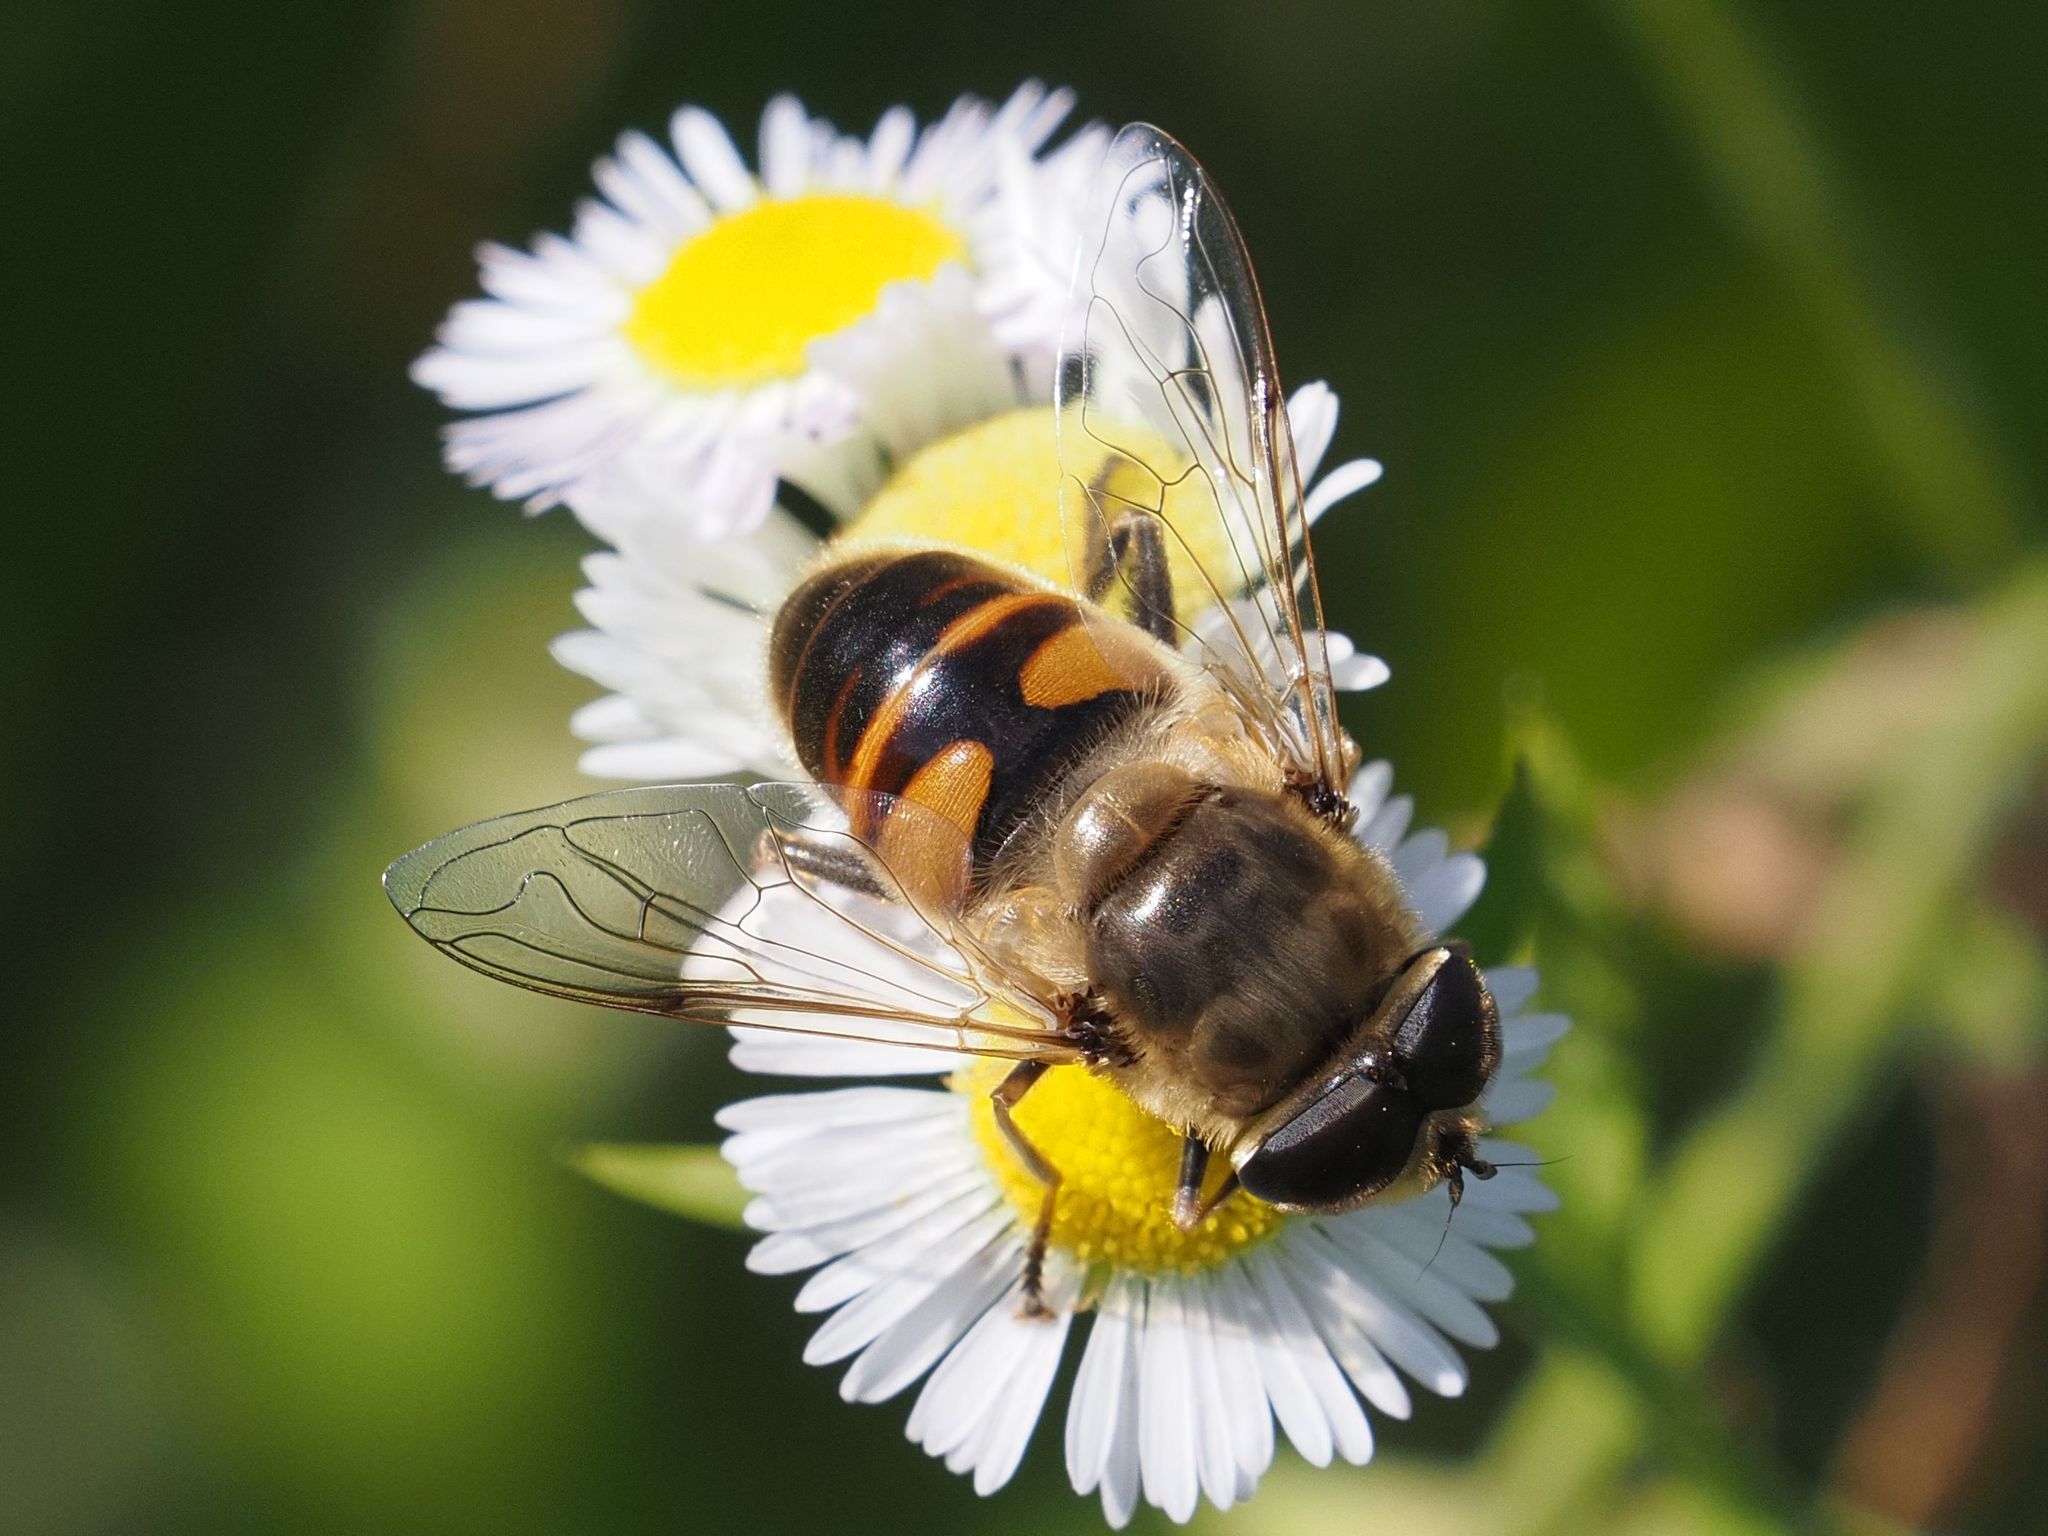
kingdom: Animalia
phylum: Arthropoda
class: Insecta
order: Diptera
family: Syrphidae
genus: Eristalis
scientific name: Eristalis tenax
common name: Drone fly
